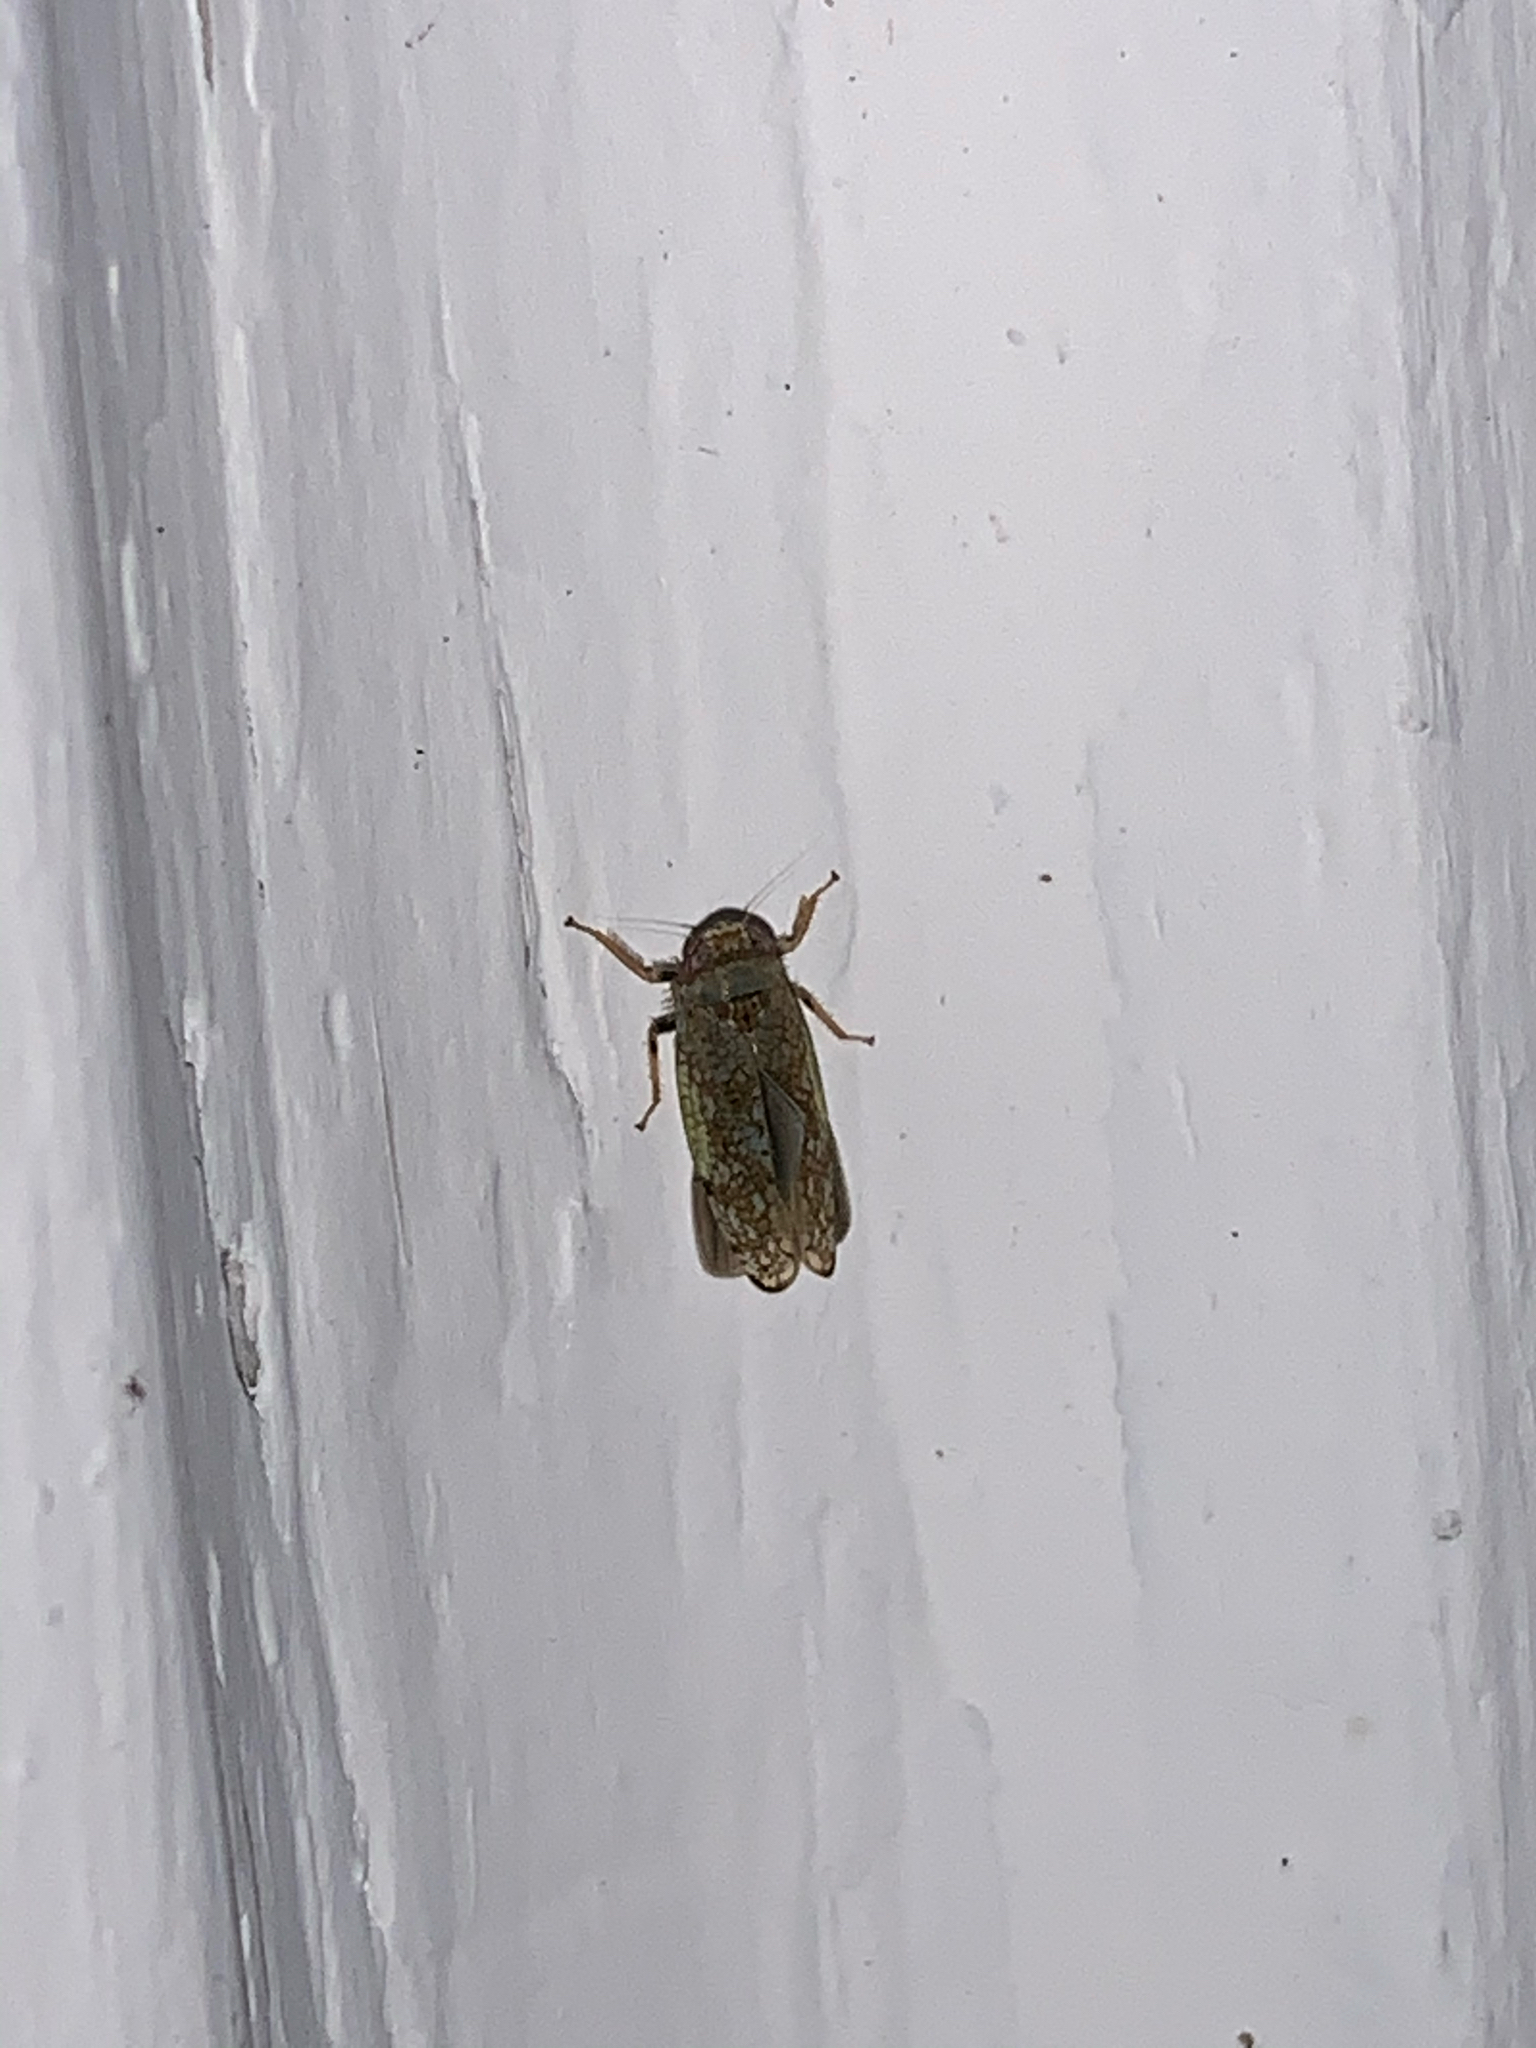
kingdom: Animalia
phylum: Arthropoda
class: Insecta
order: Hemiptera
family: Cicadellidae
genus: Orientus
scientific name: Orientus ishidae
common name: Japanese leafhopper
